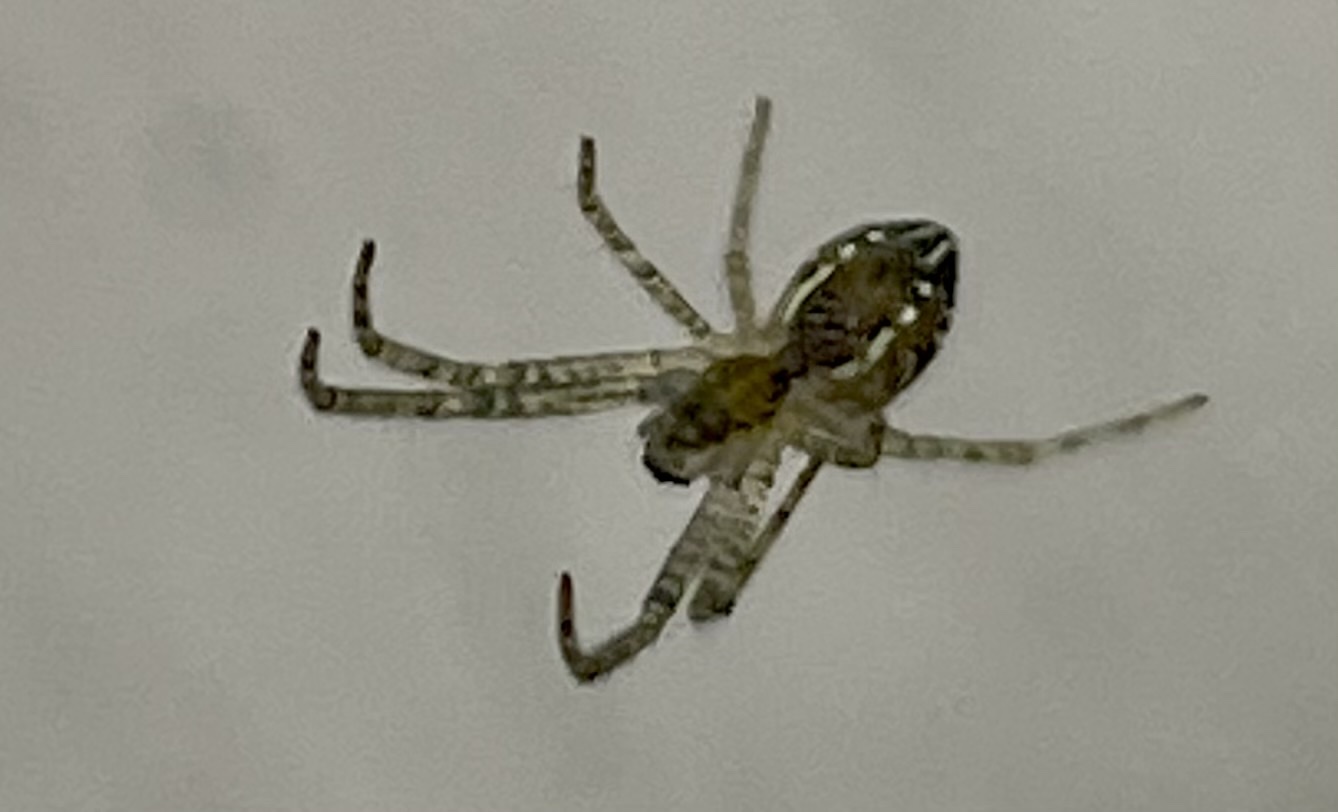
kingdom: Animalia
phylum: Arthropoda
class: Arachnida
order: Araneae
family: Araneidae
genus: Cyrtophora
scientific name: Cyrtophora cicatrosa
